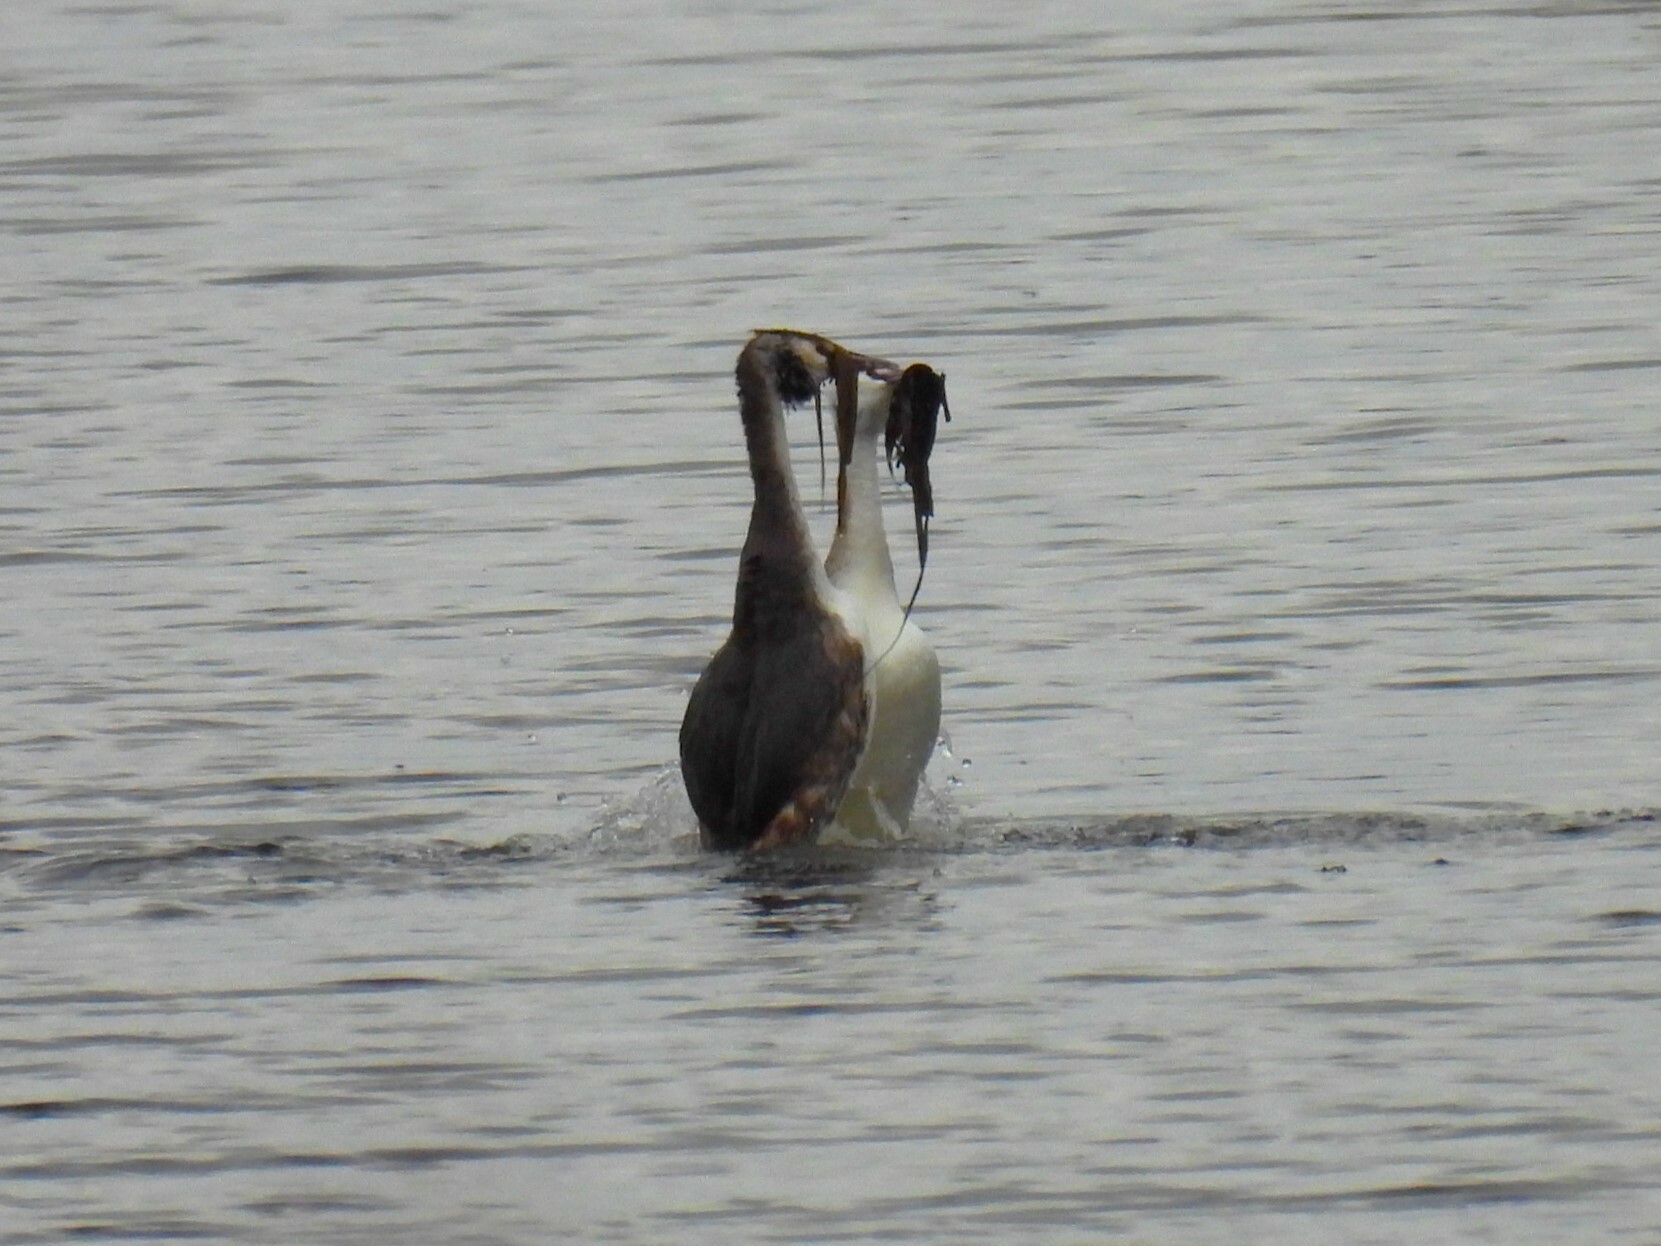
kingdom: Animalia
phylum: Chordata
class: Aves
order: Podicipediformes
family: Podicipedidae
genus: Podiceps
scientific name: Podiceps cristatus
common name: Great crested grebe
